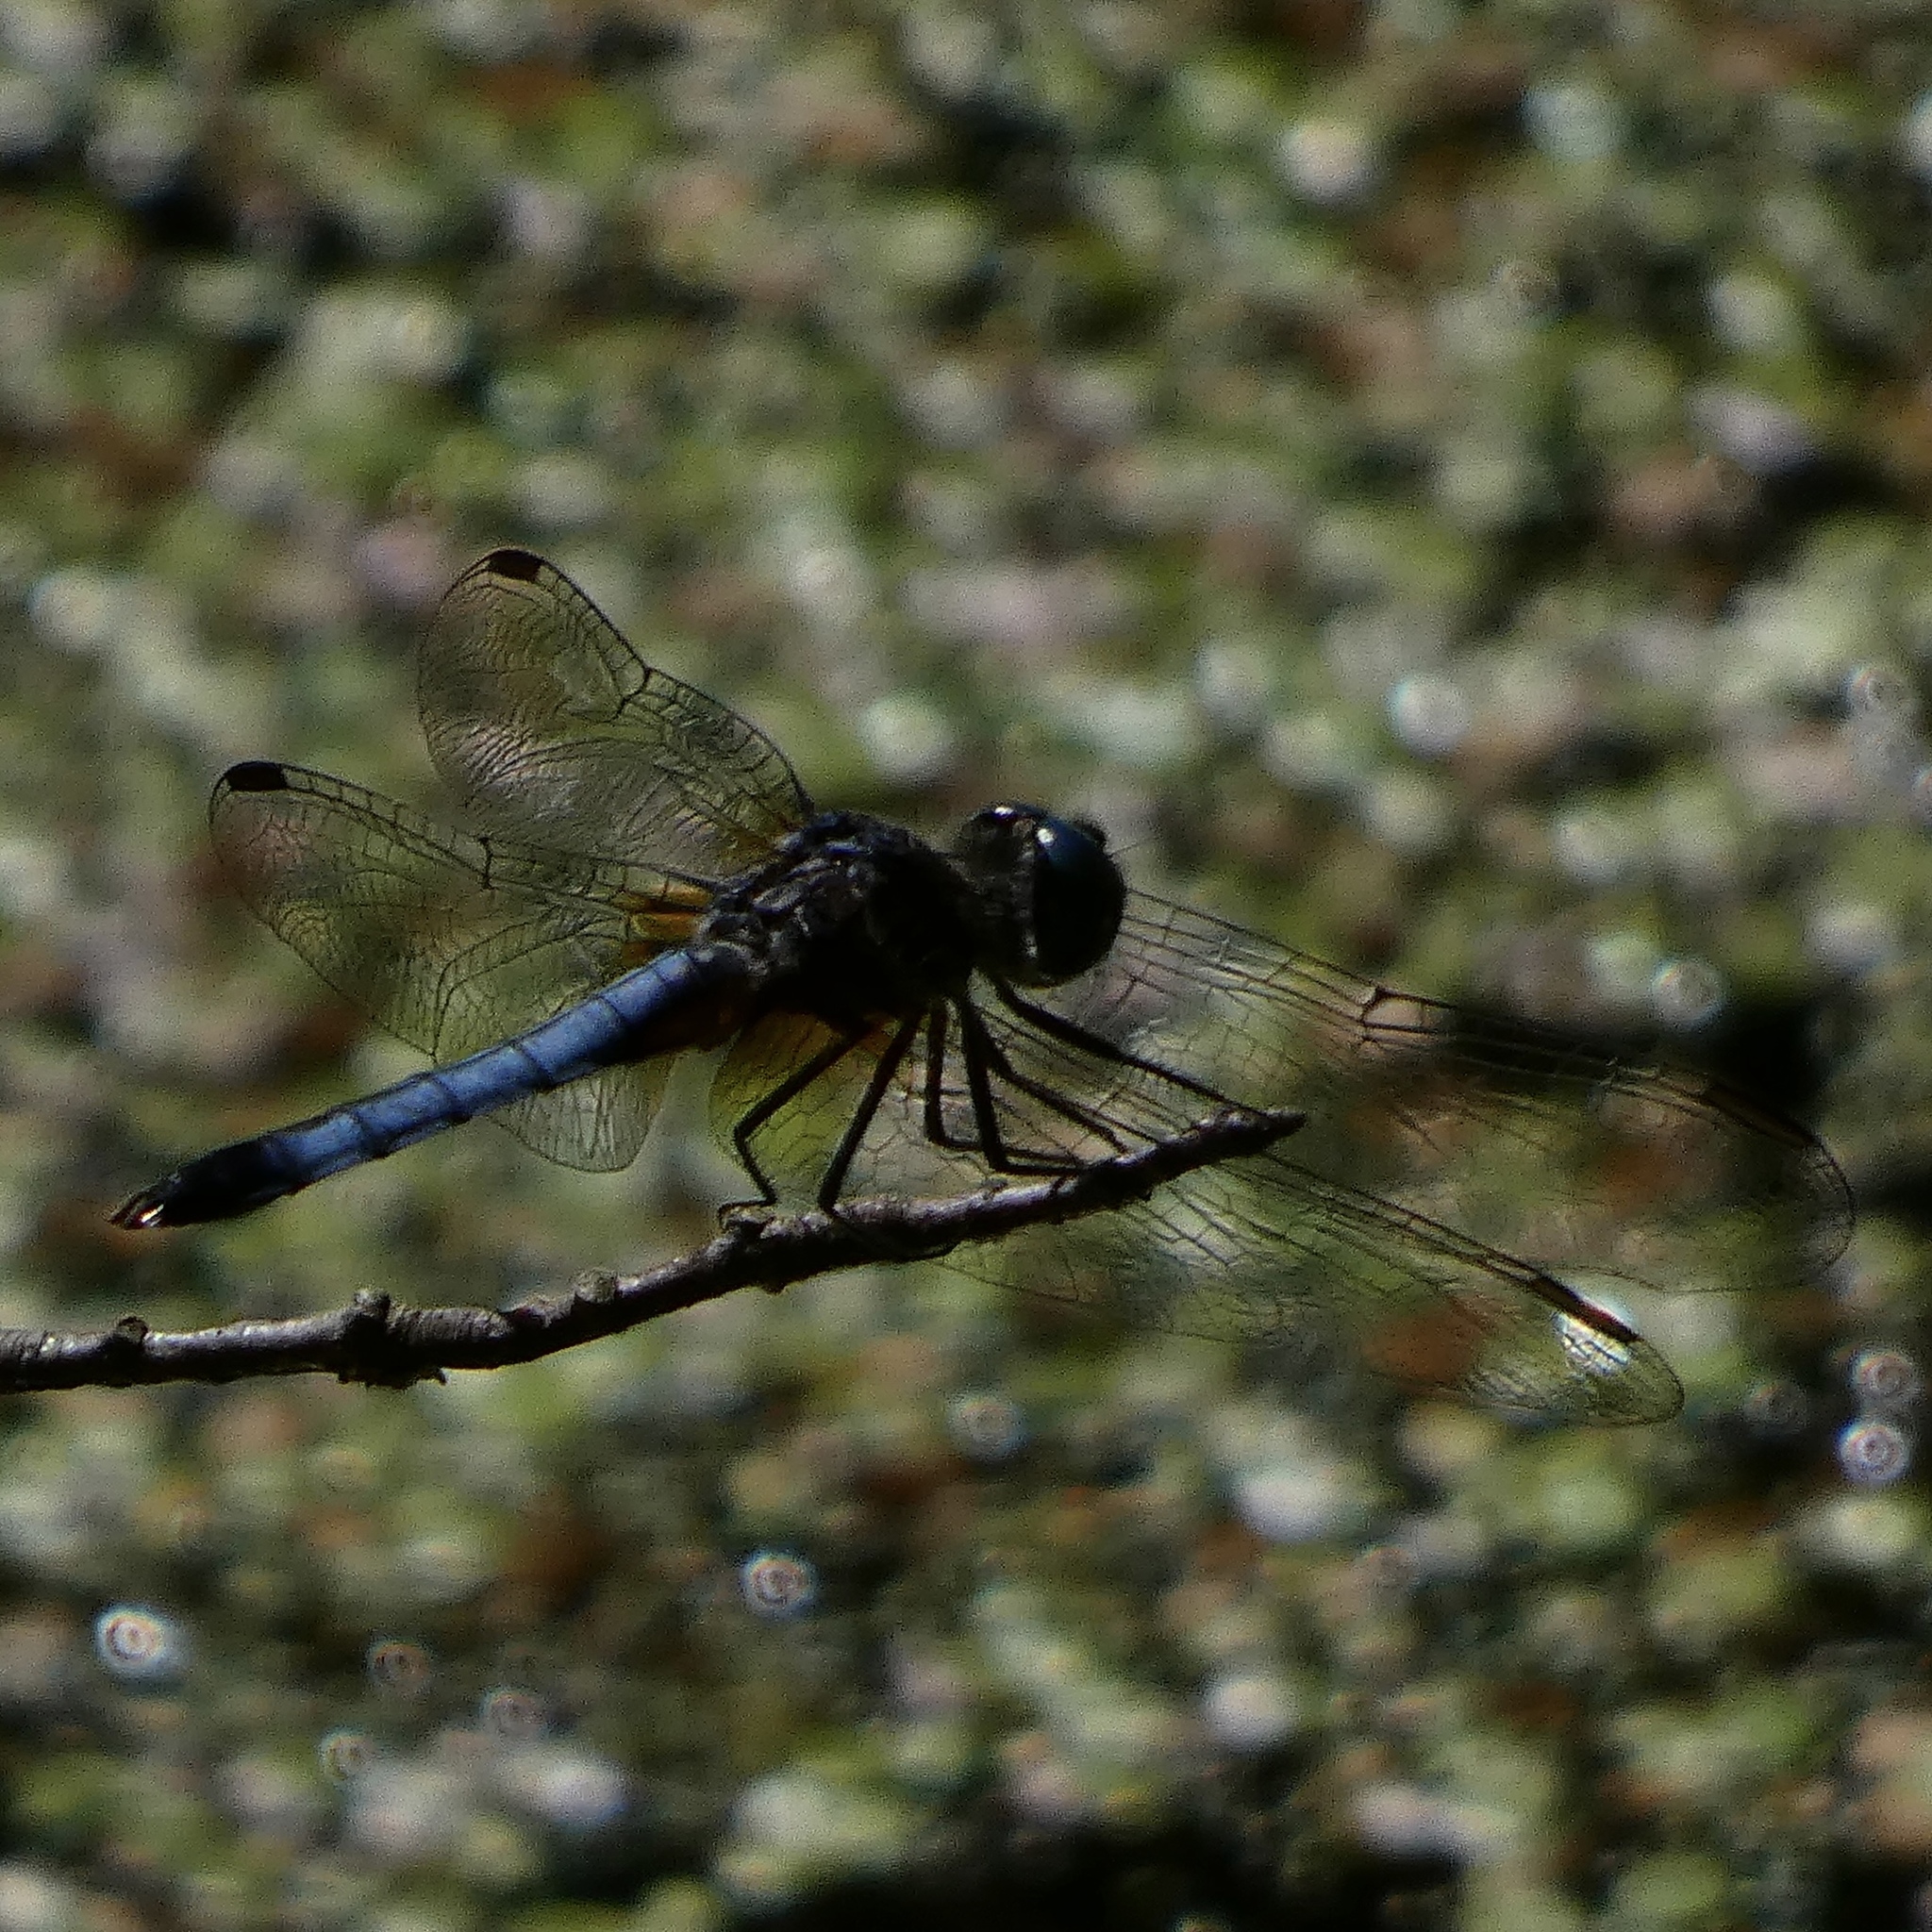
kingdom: Animalia
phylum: Arthropoda
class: Insecta
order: Odonata
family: Libellulidae
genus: Pachydiplax
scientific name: Pachydiplax longipennis
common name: Blue dasher
